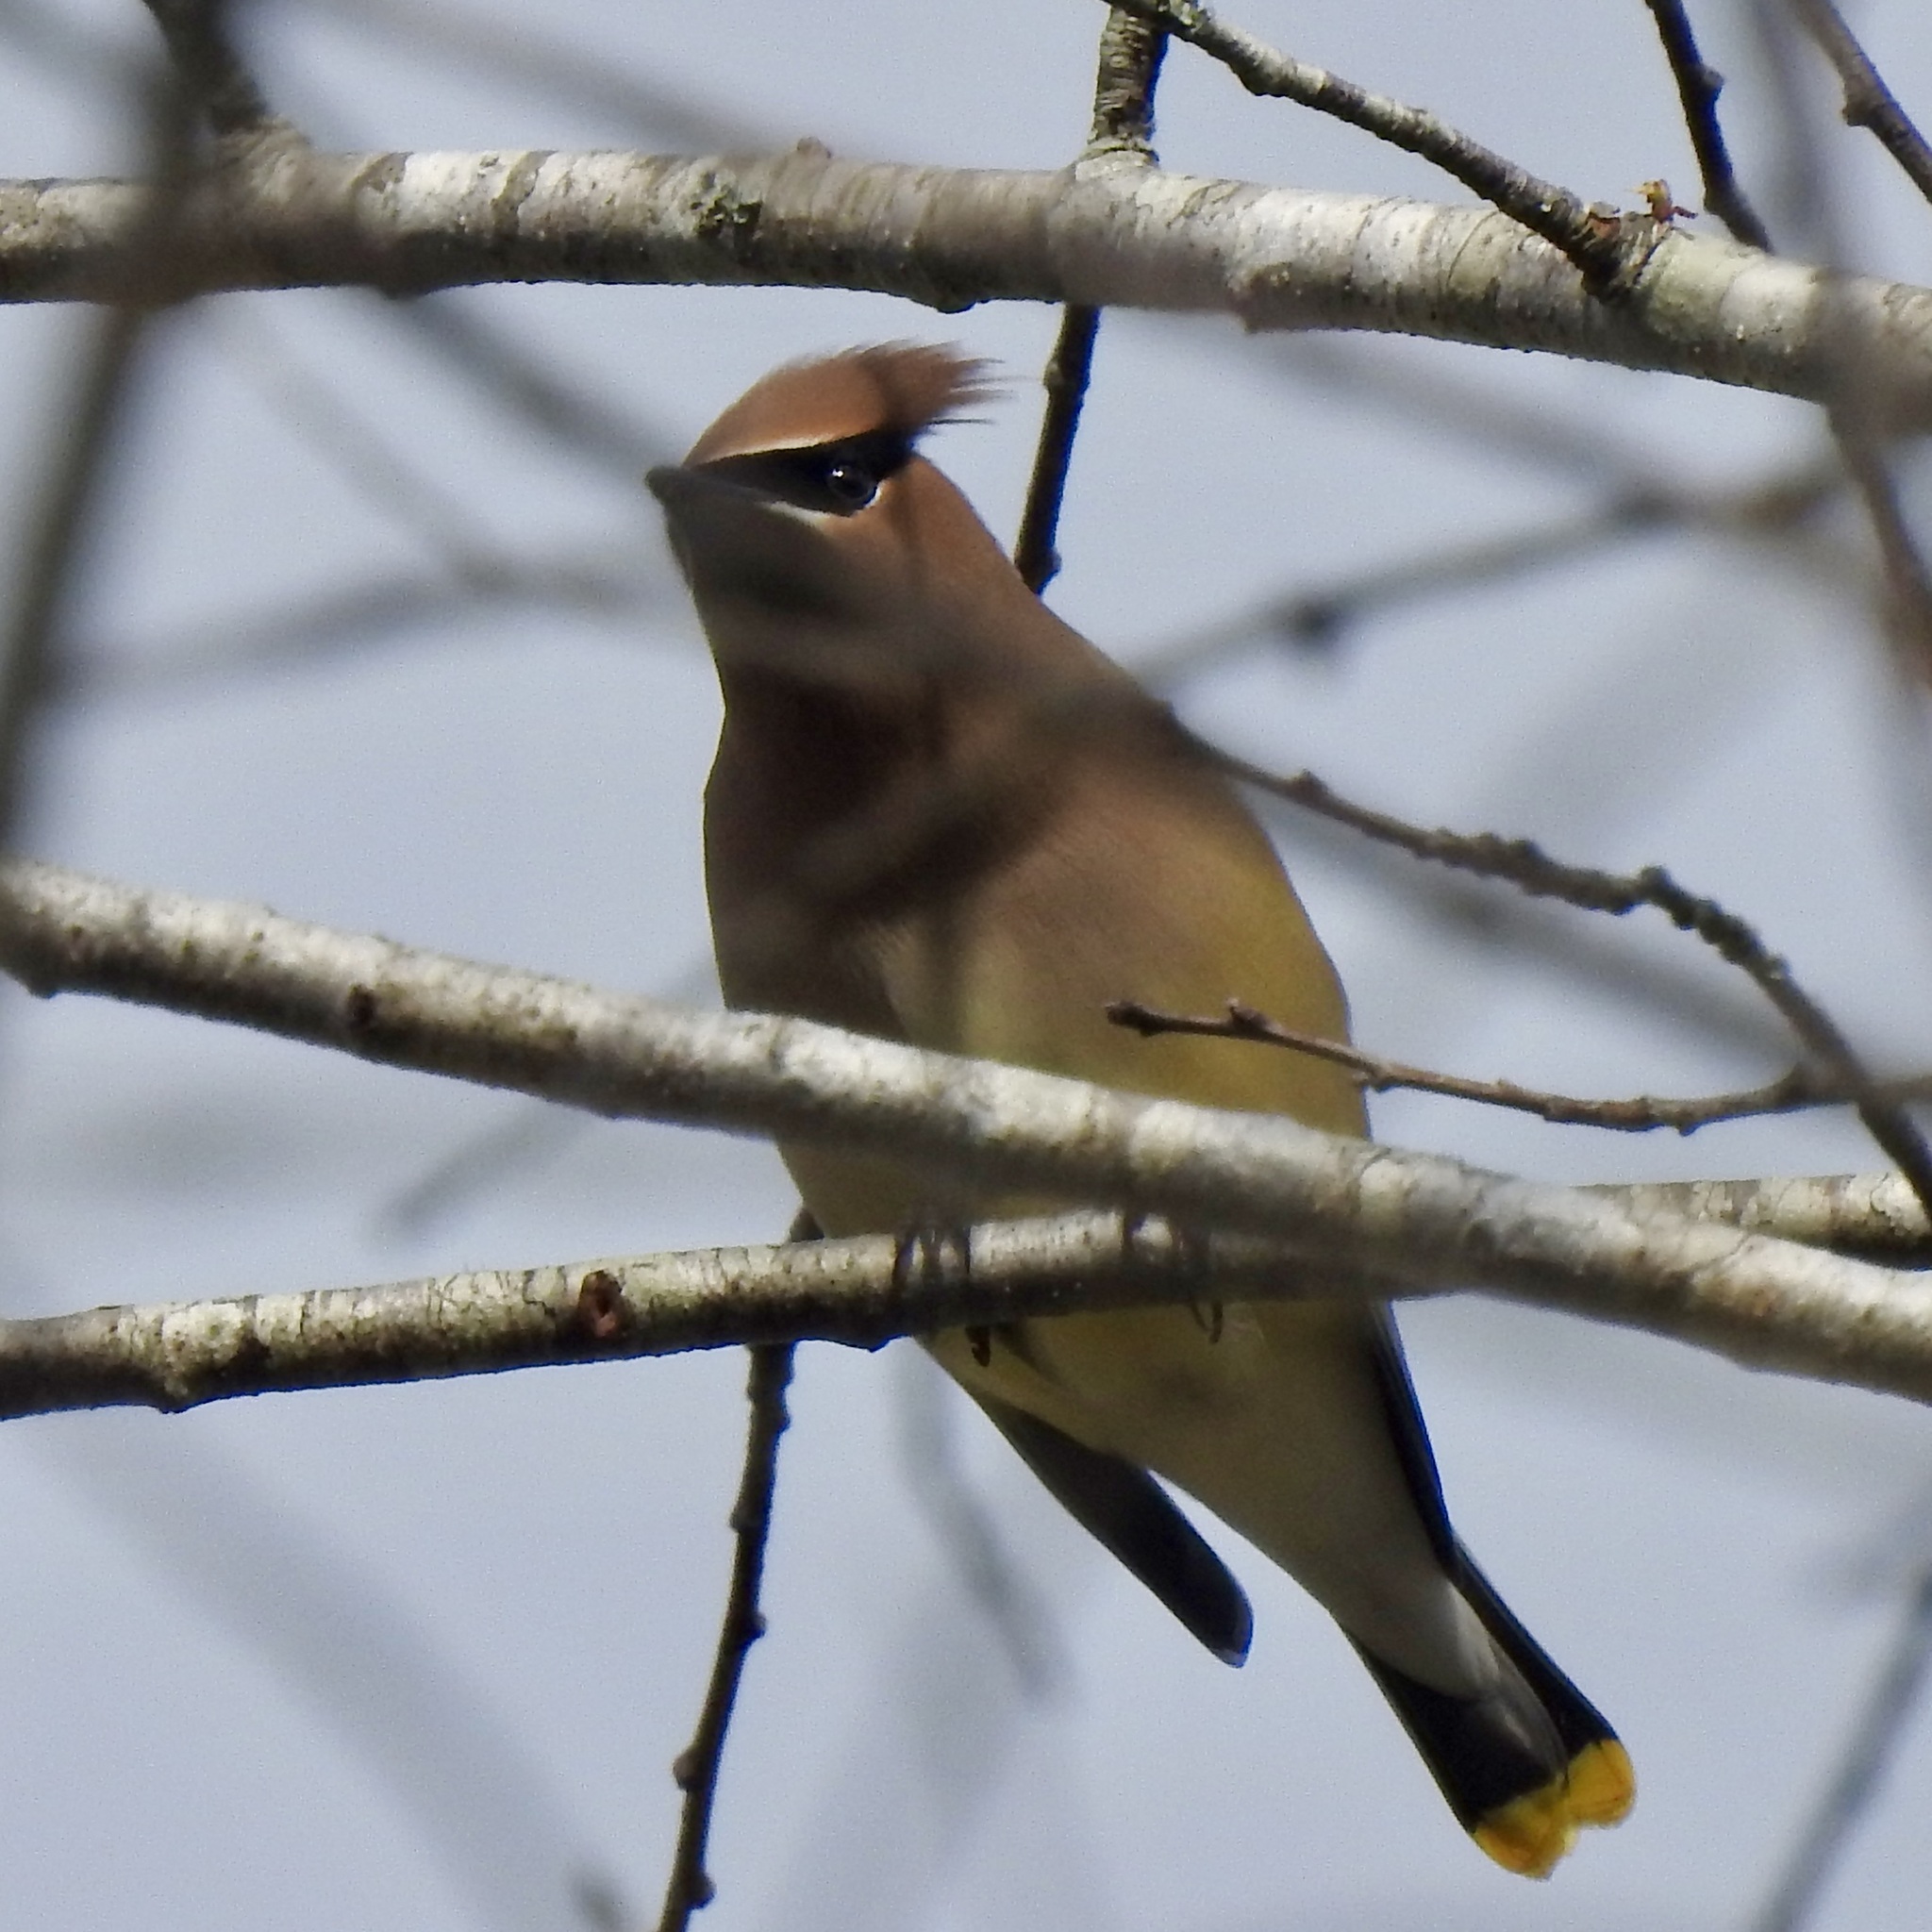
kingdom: Animalia
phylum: Chordata
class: Aves
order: Passeriformes
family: Bombycillidae
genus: Bombycilla
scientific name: Bombycilla cedrorum
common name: Cedar waxwing
